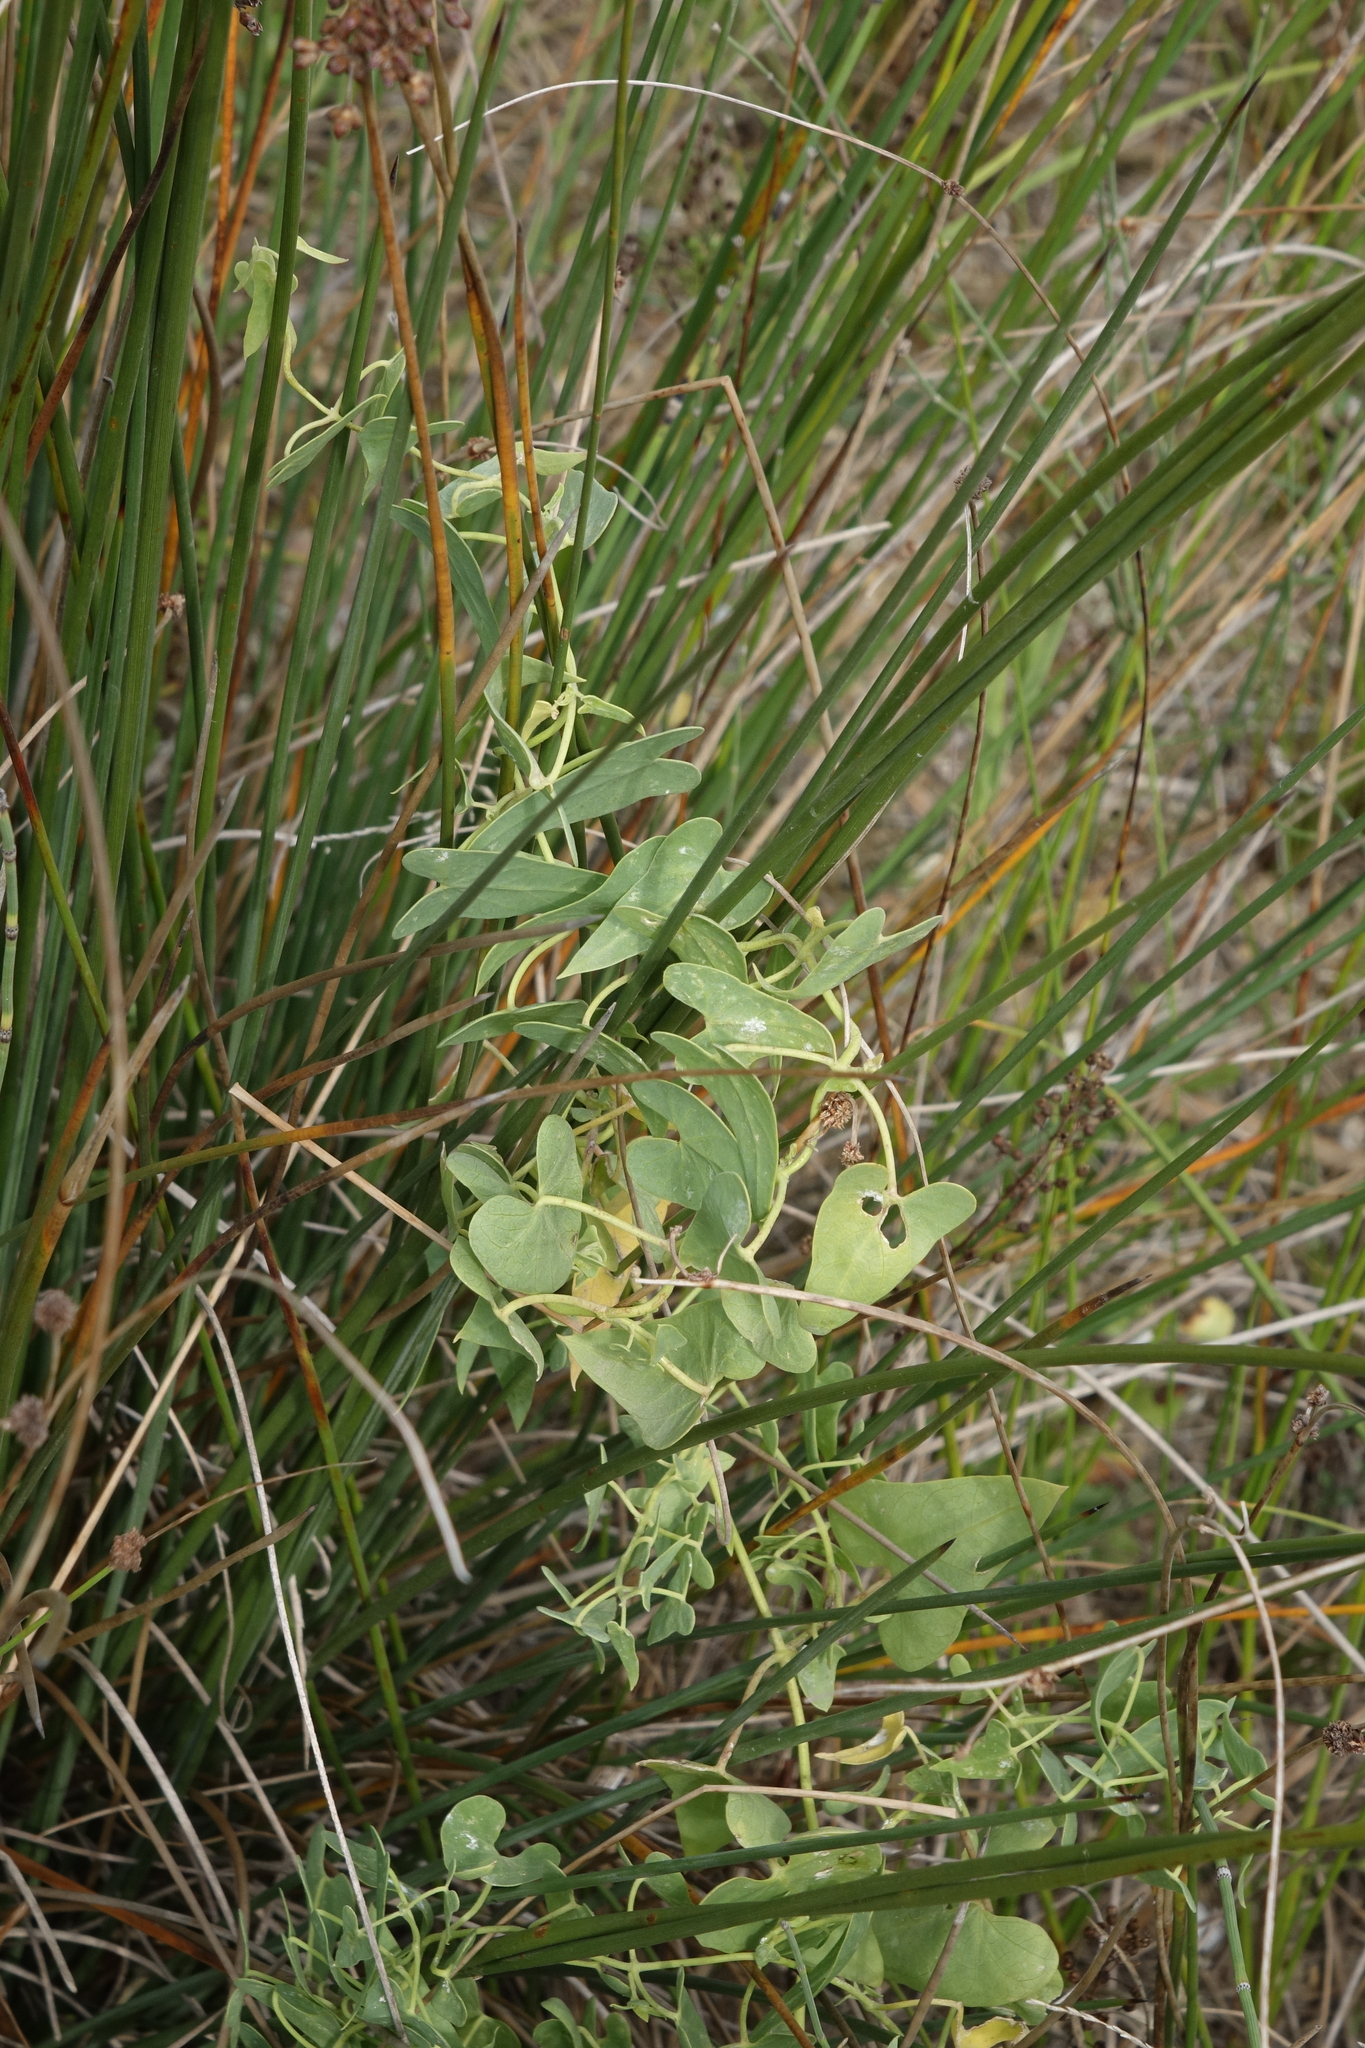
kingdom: Plantae
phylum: Tracheophyta
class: Magnoliopsida
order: Gentianales
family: Apocynaceae
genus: Cynanchum
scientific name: Cynanchum acutum
